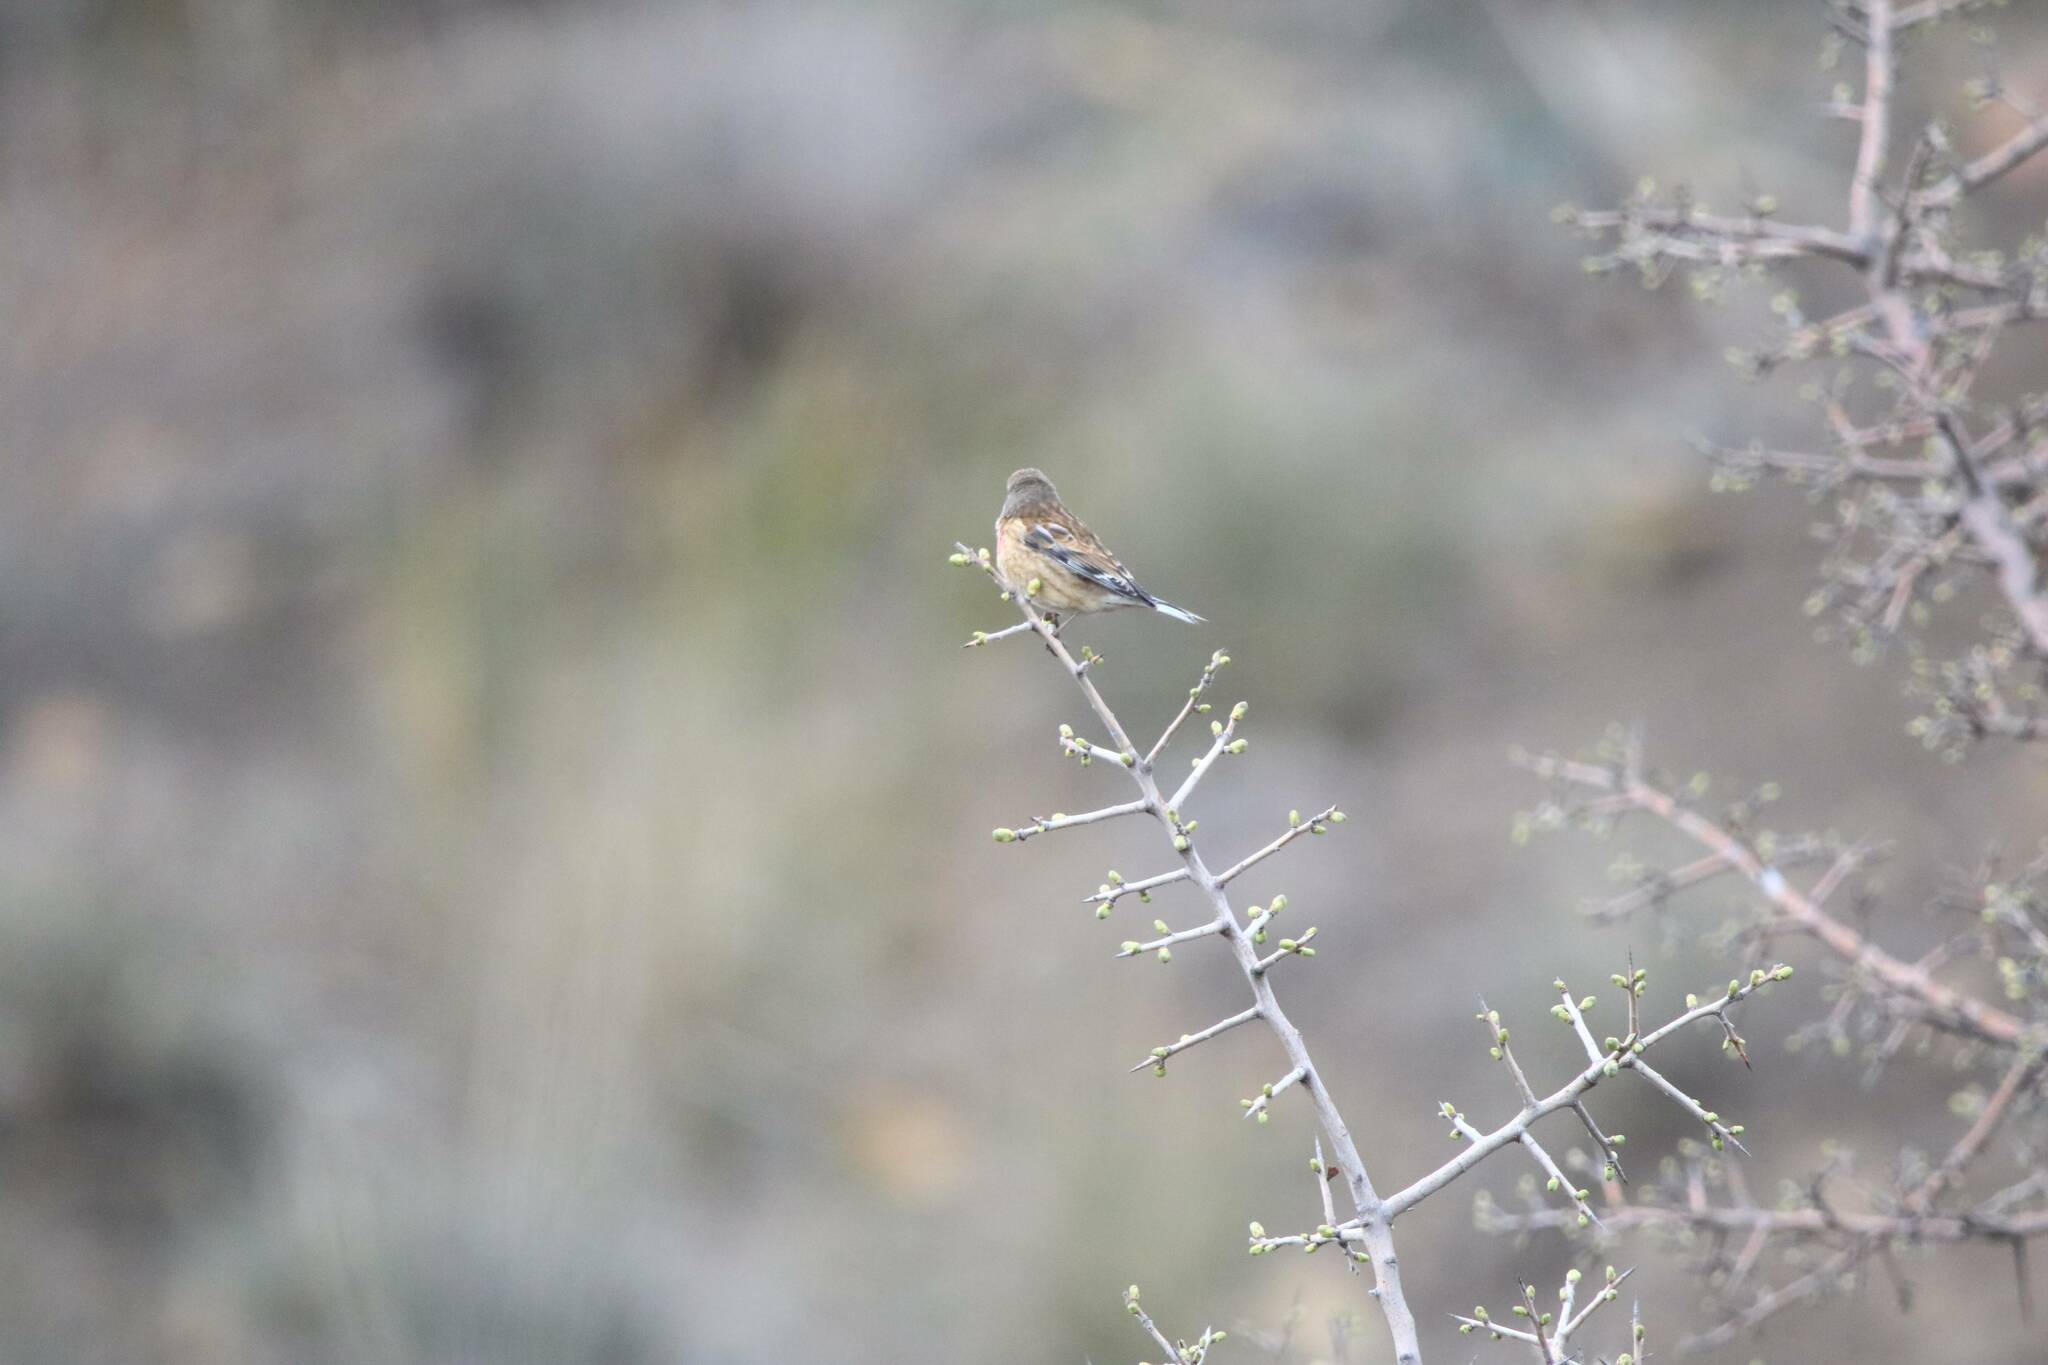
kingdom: Animalia
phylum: Chordata
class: Aves
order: Passeriformes
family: Fringillidae
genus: Linaria
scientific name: Linaria cannabina
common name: Common linnet
